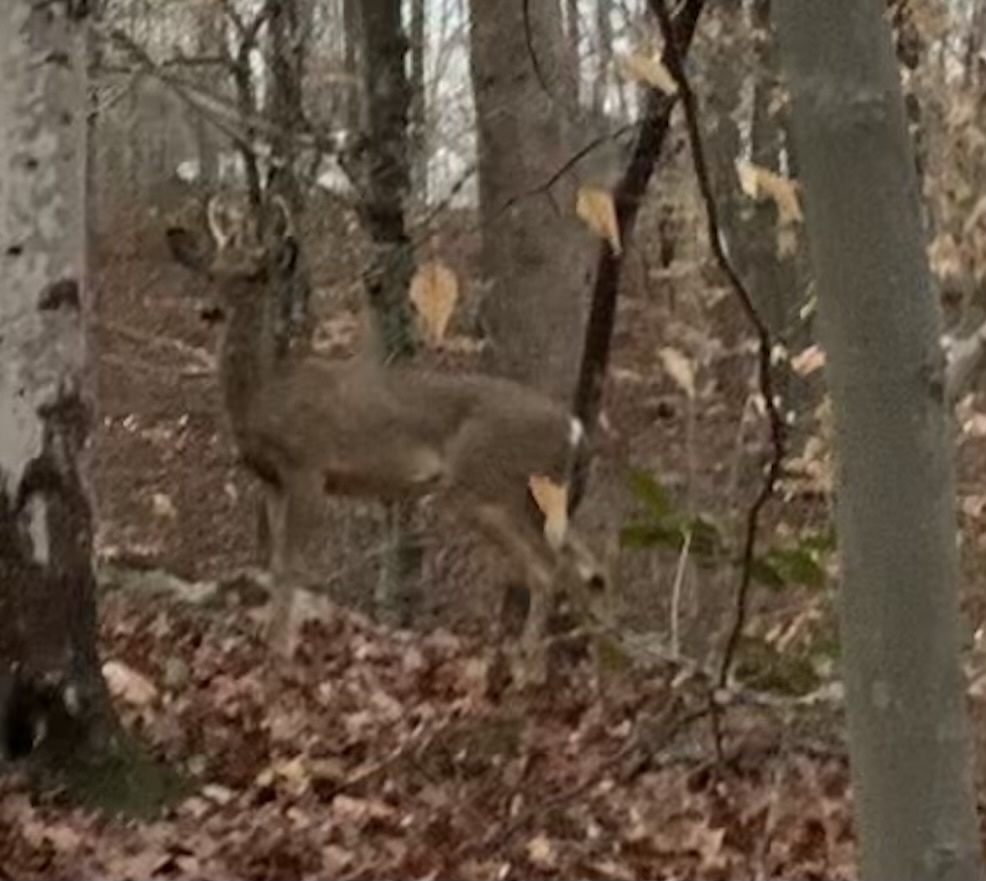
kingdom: Animalia
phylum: Chordata
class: Mammalia
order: Artiodactyla
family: Cervidae
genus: Odocoileus
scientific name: Odocoileus virginianus
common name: White-tailed deer
